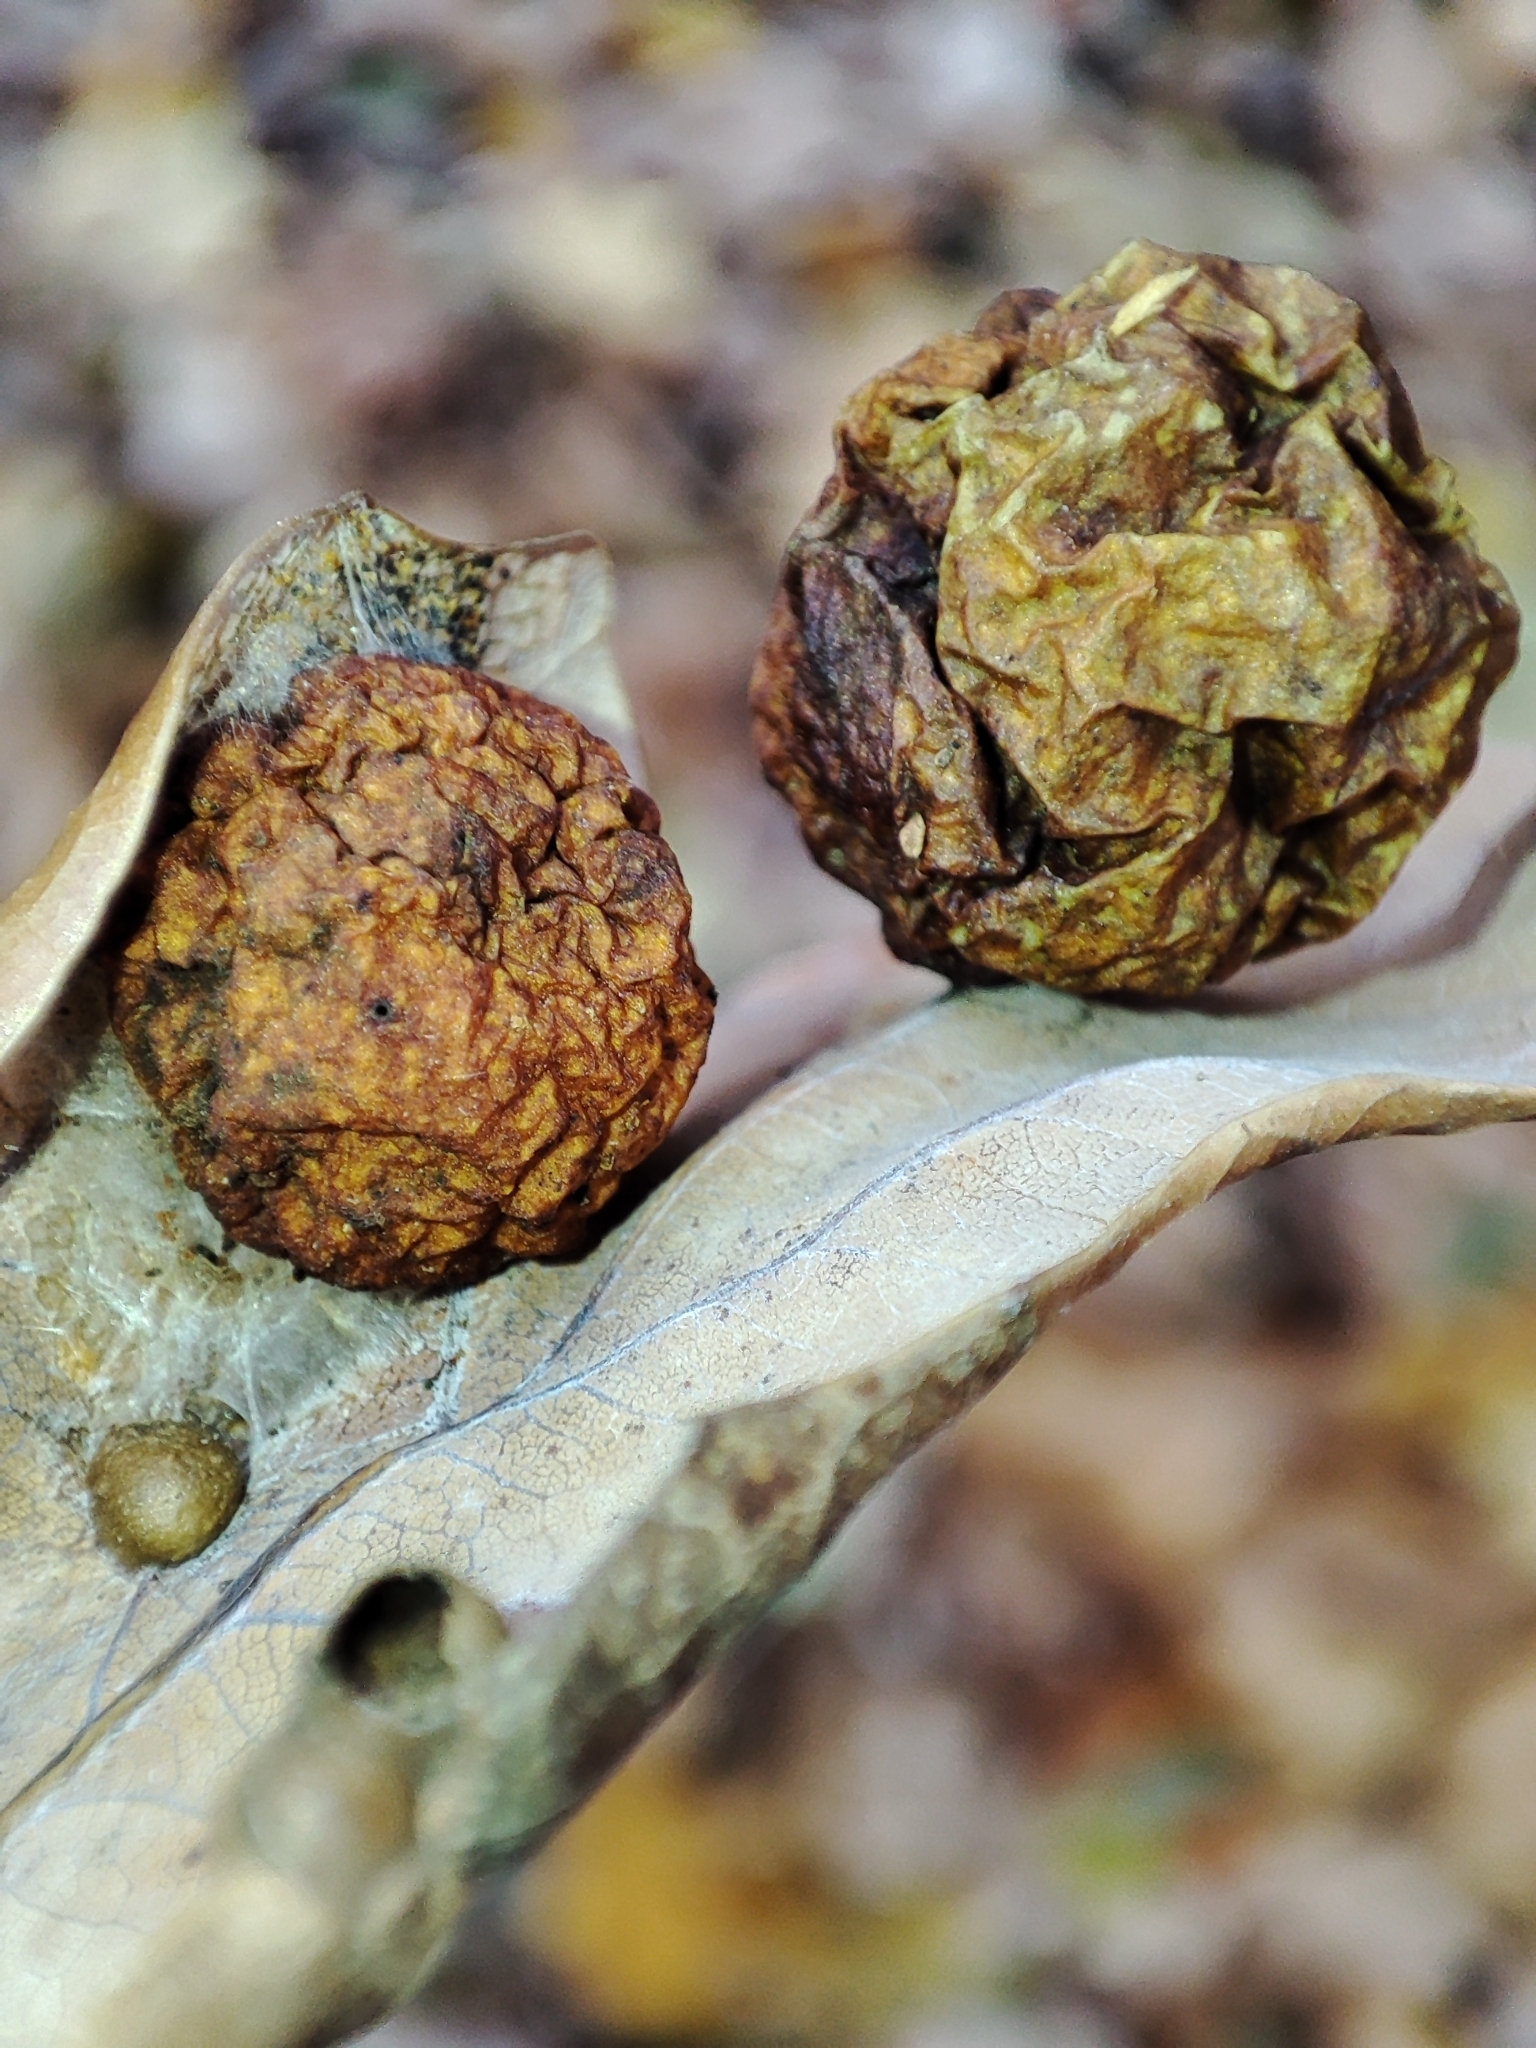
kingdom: Animalia
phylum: Arthropoda
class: Insecta
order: Hymenoptera
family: Cynipidae
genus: Cynips
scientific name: Cynips quercusfolii
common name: Cherry gall
